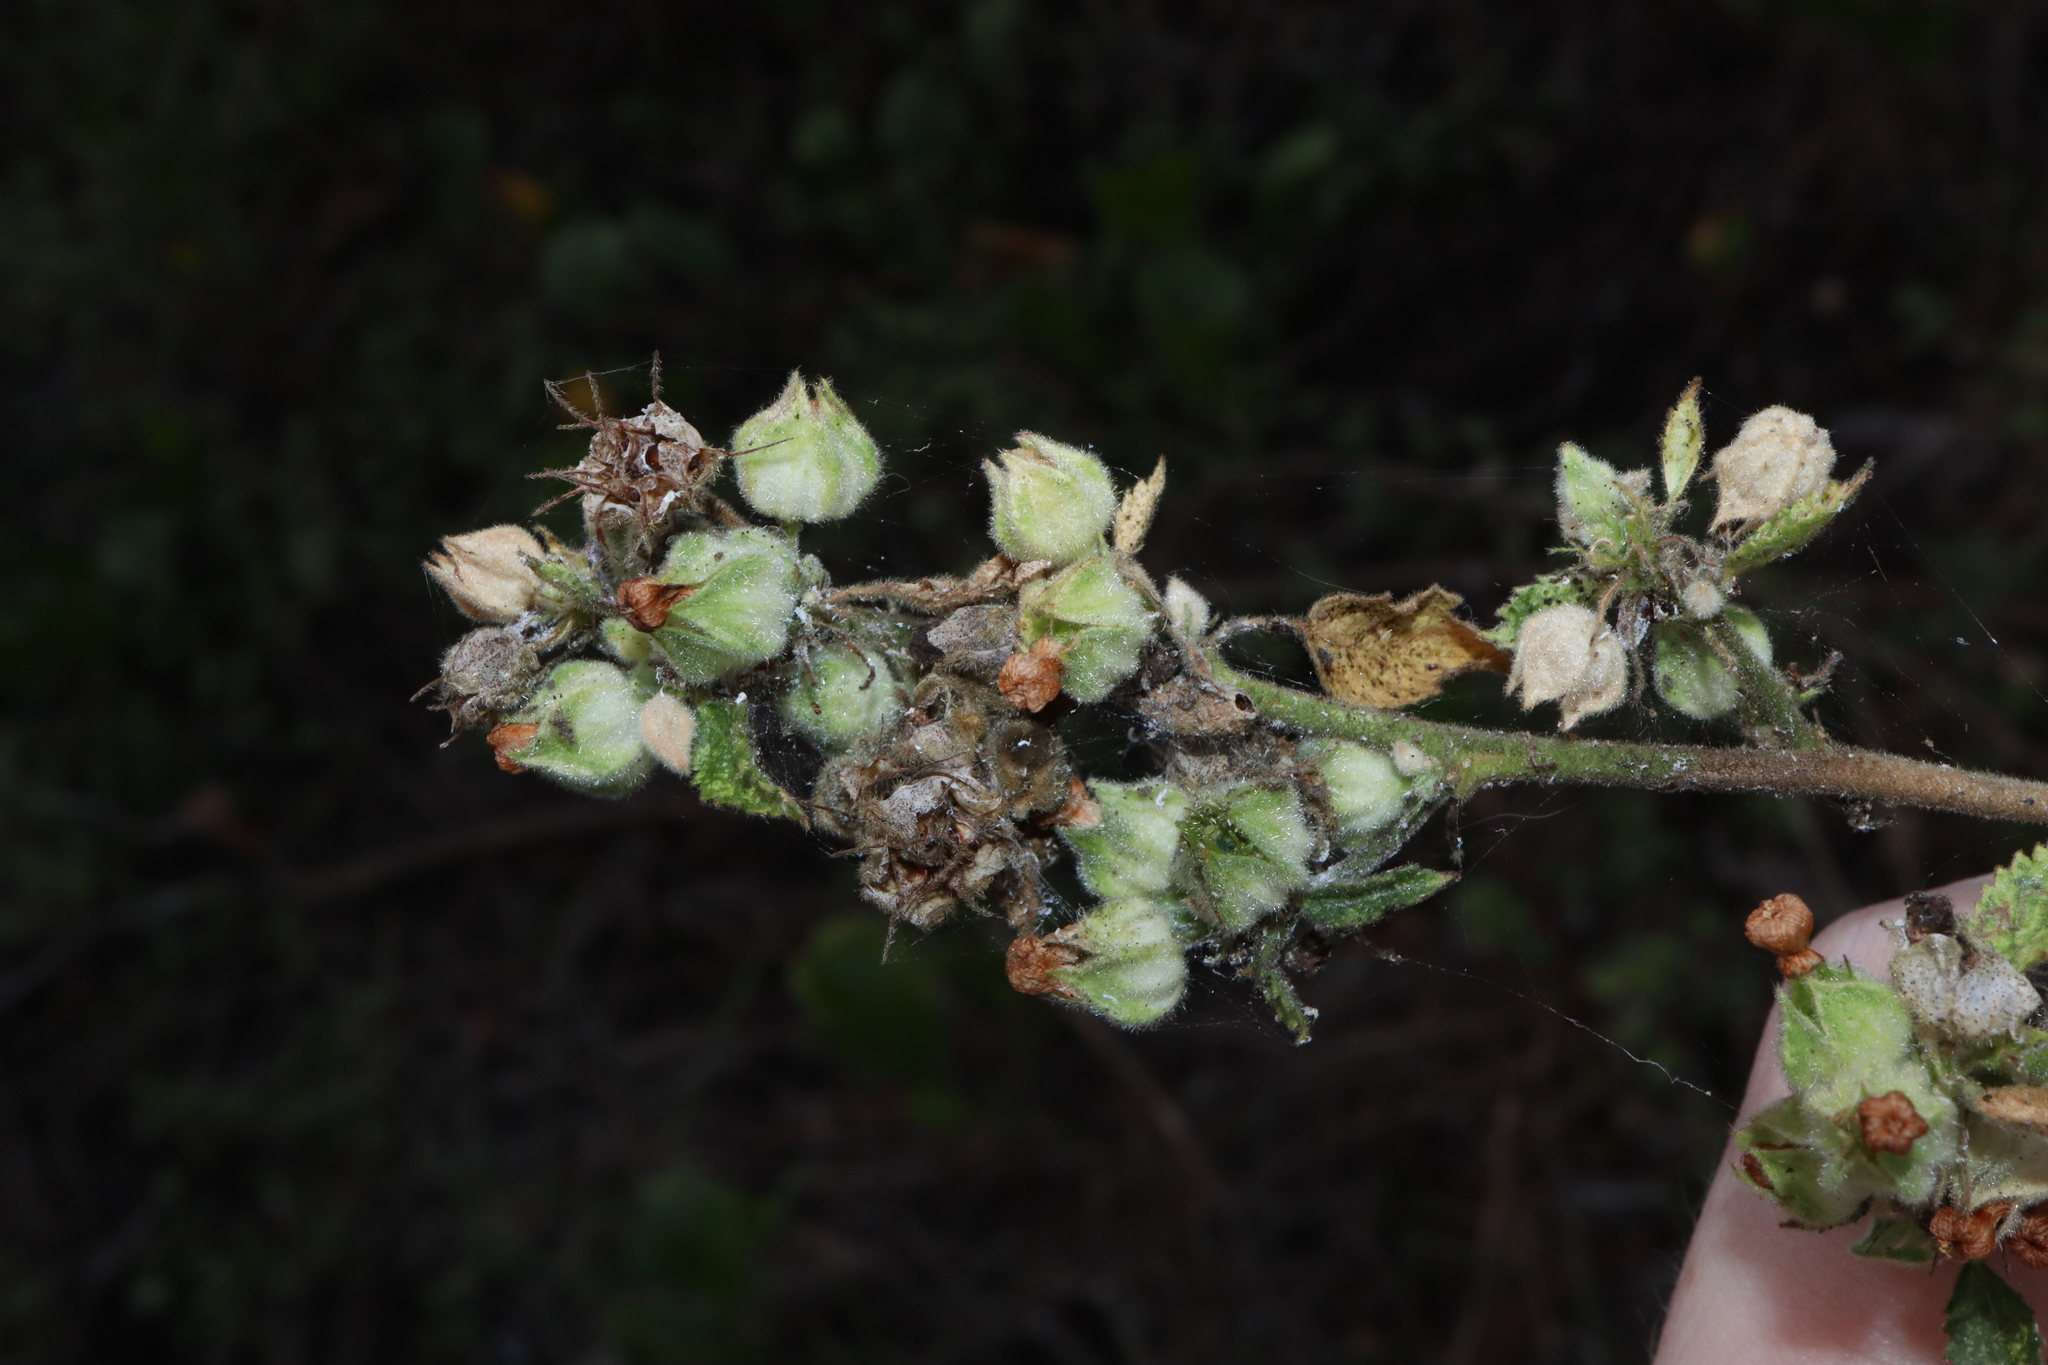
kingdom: Plantae
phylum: Tracheophyta
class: Magnoliopsida
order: Malvales
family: Malvaceae
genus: Sida
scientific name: Sida cordifolia
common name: Ilima
